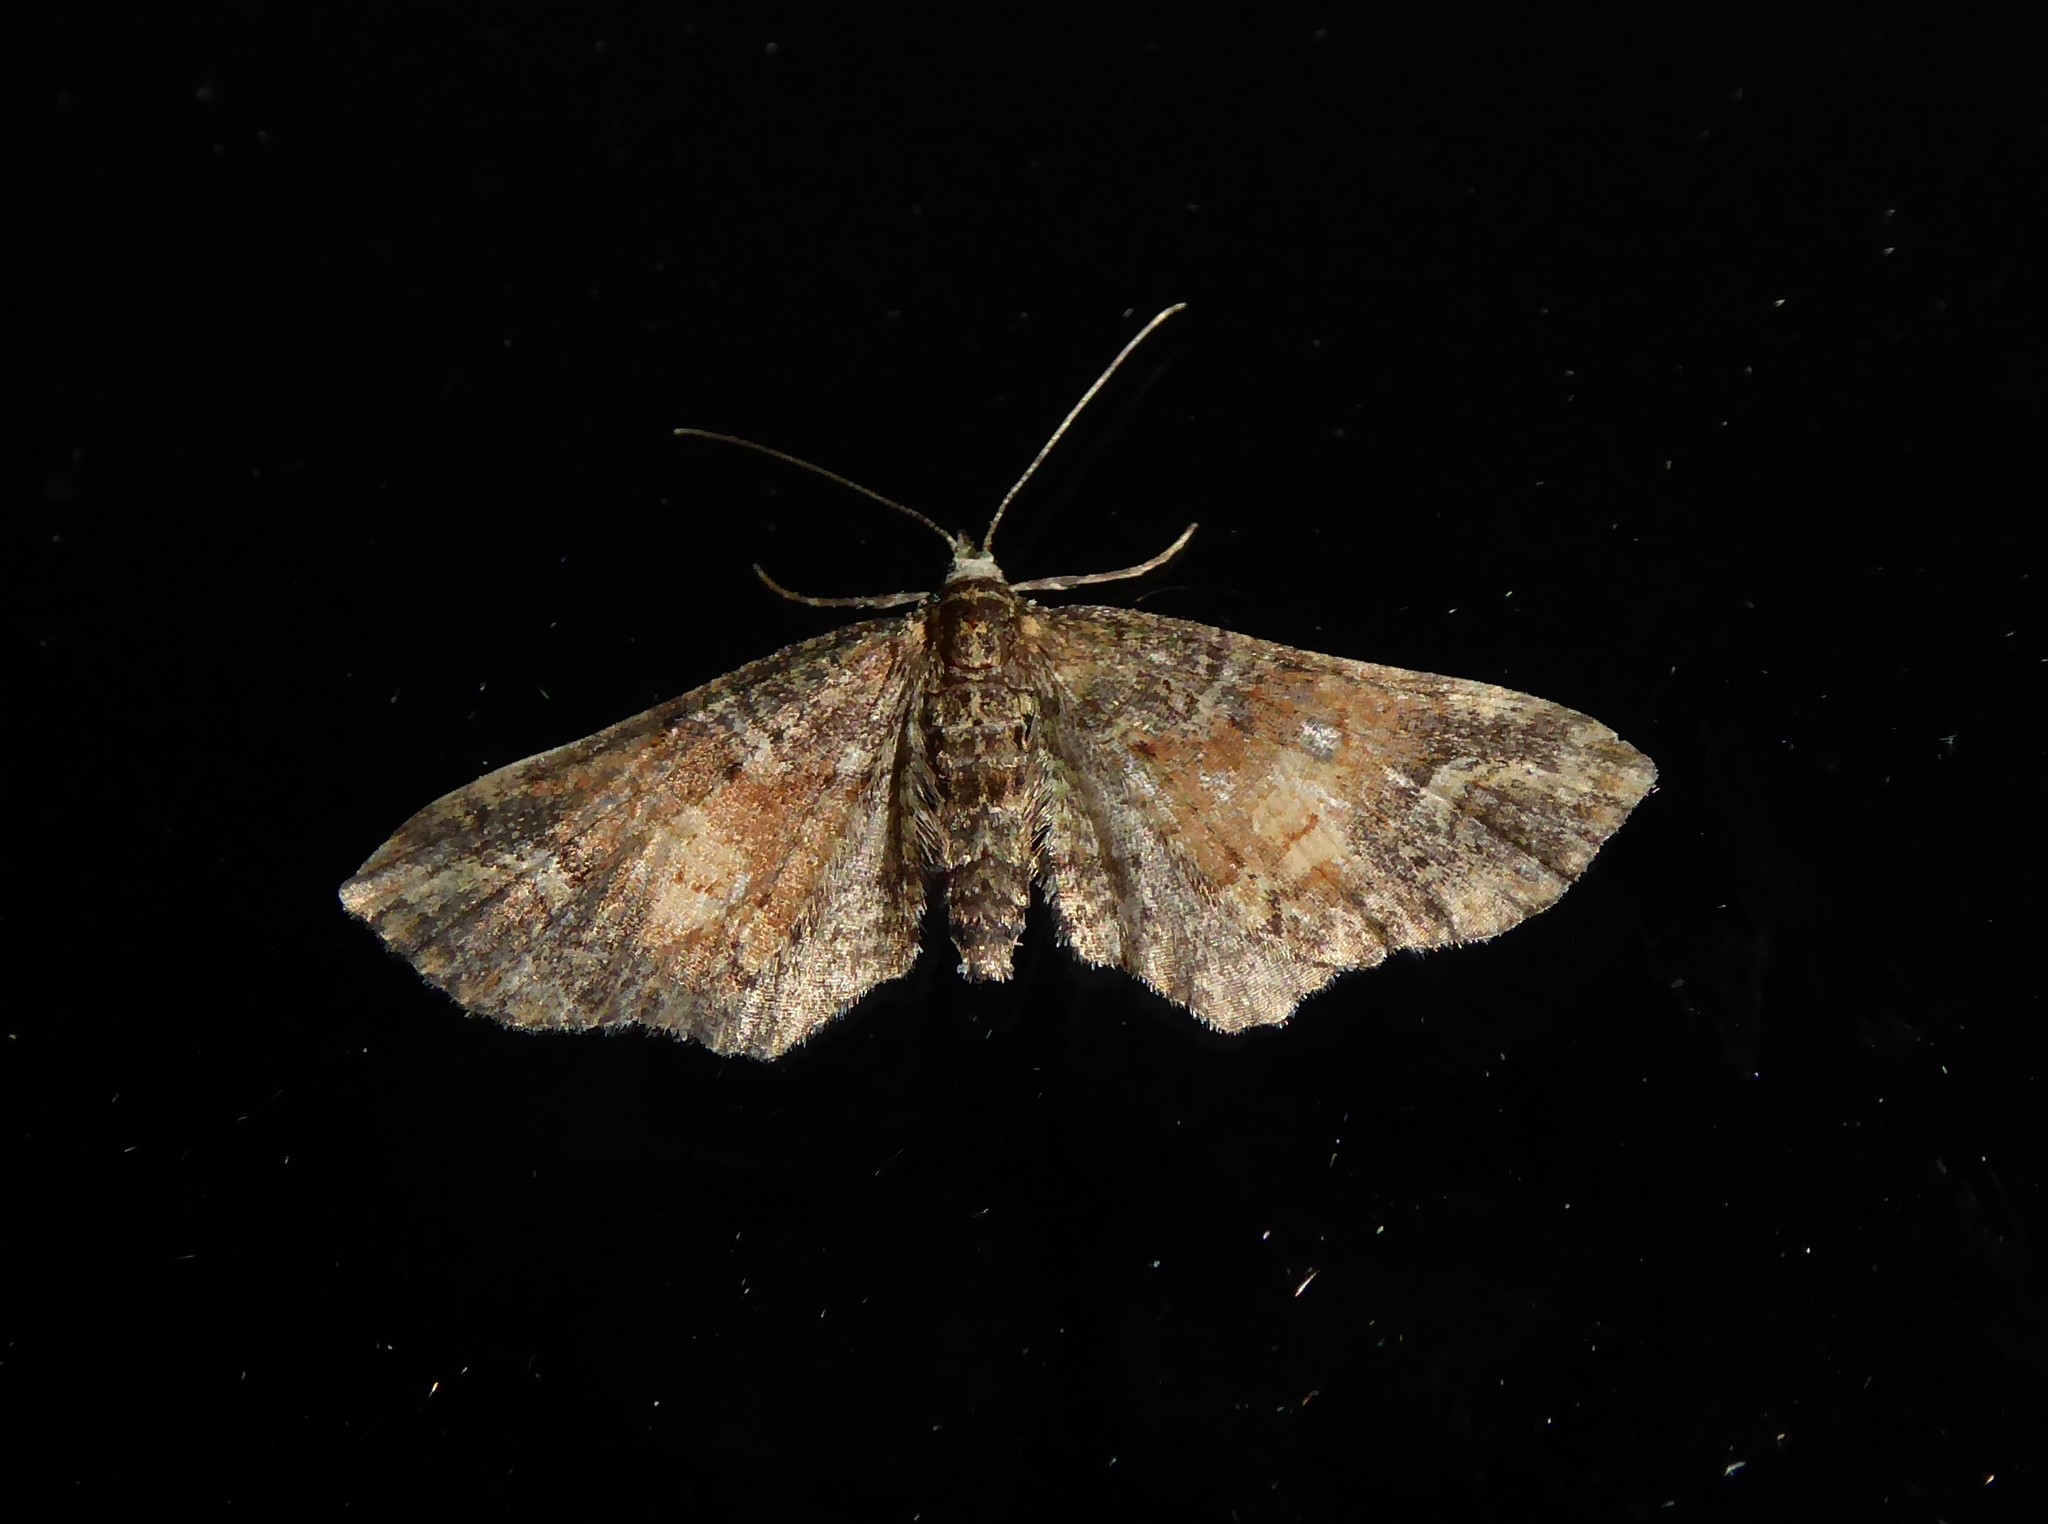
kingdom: Animalia
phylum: Arthropoda
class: Insecta
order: Lepidoptera
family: Geometridae
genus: Idaea
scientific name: Idaea mutanda
